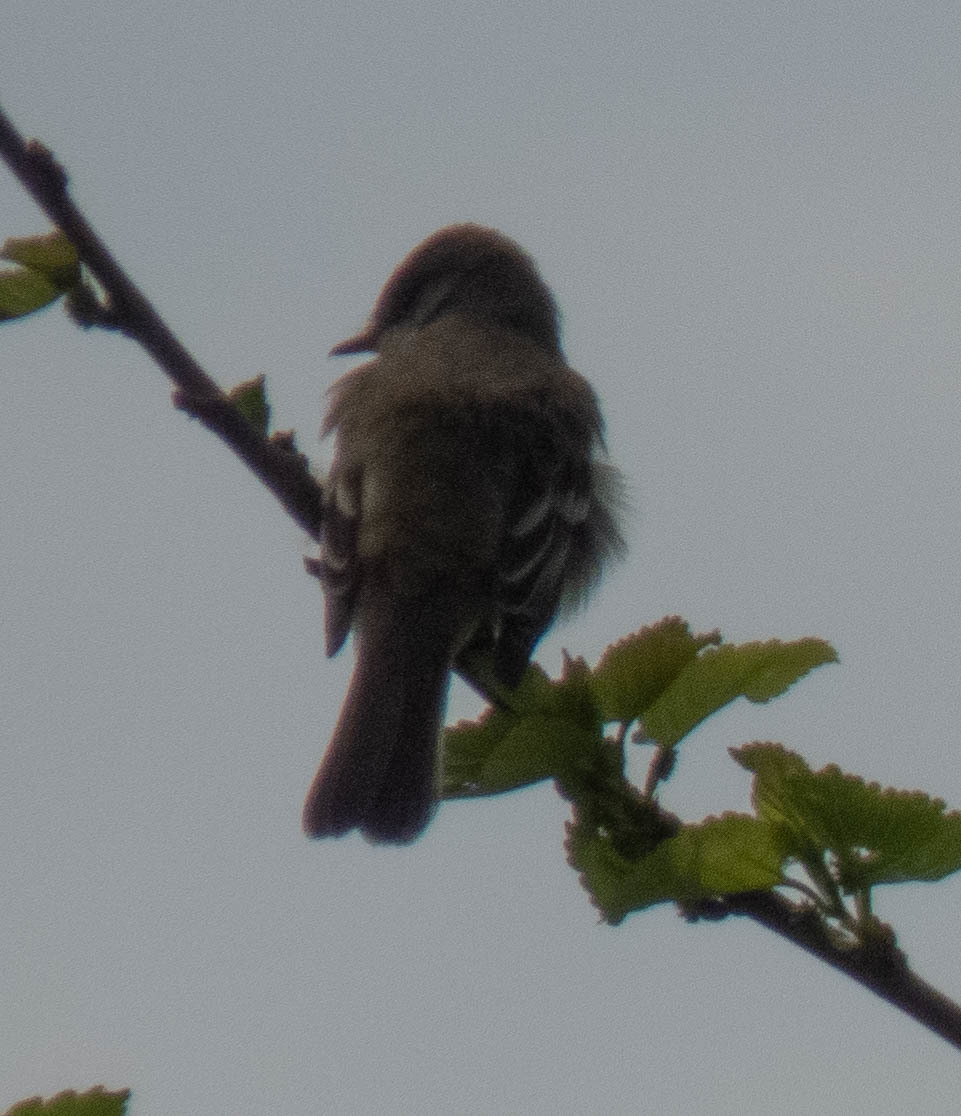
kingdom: Animalia
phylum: Chordata
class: Aves
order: Passeriformes
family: Tyrannidae
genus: Empidonax
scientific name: Empidonax
